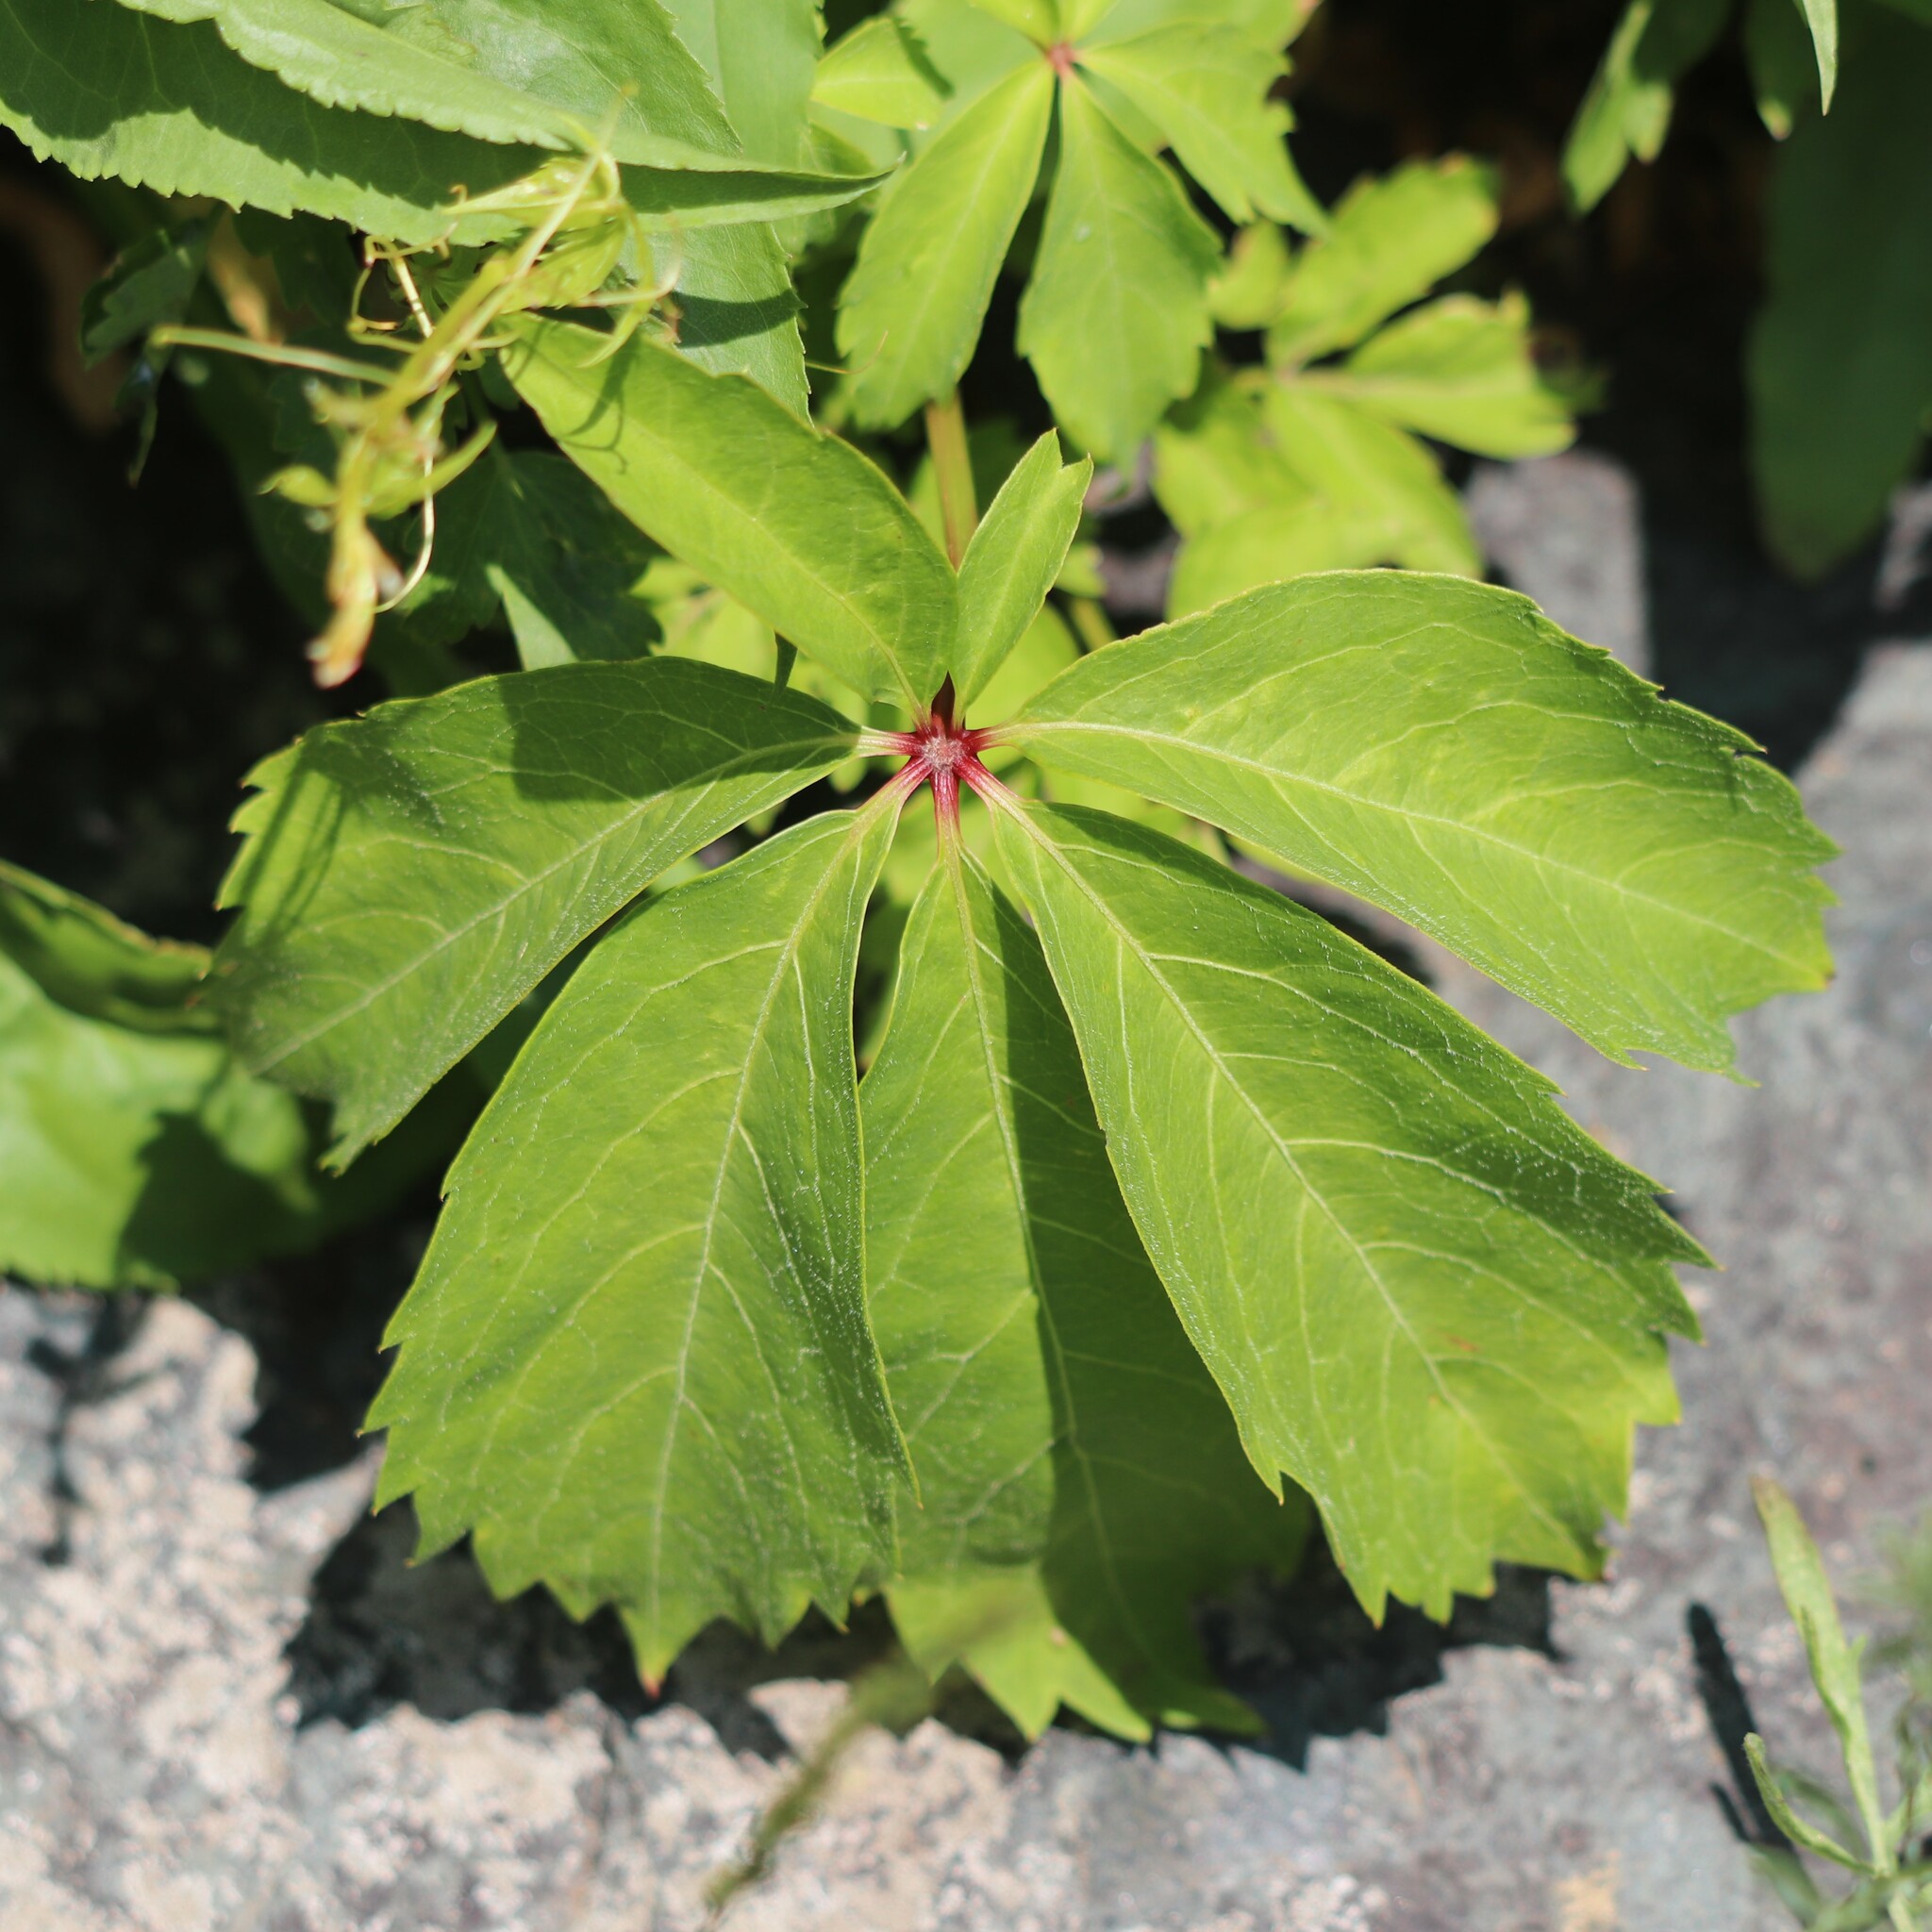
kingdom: Plantae
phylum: Tracheophyta
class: Magnoliopsida
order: Vitales
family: Vitaceae
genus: Parthenocissus
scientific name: Parthenocissus quinquefolia
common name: Virginia-creeper
